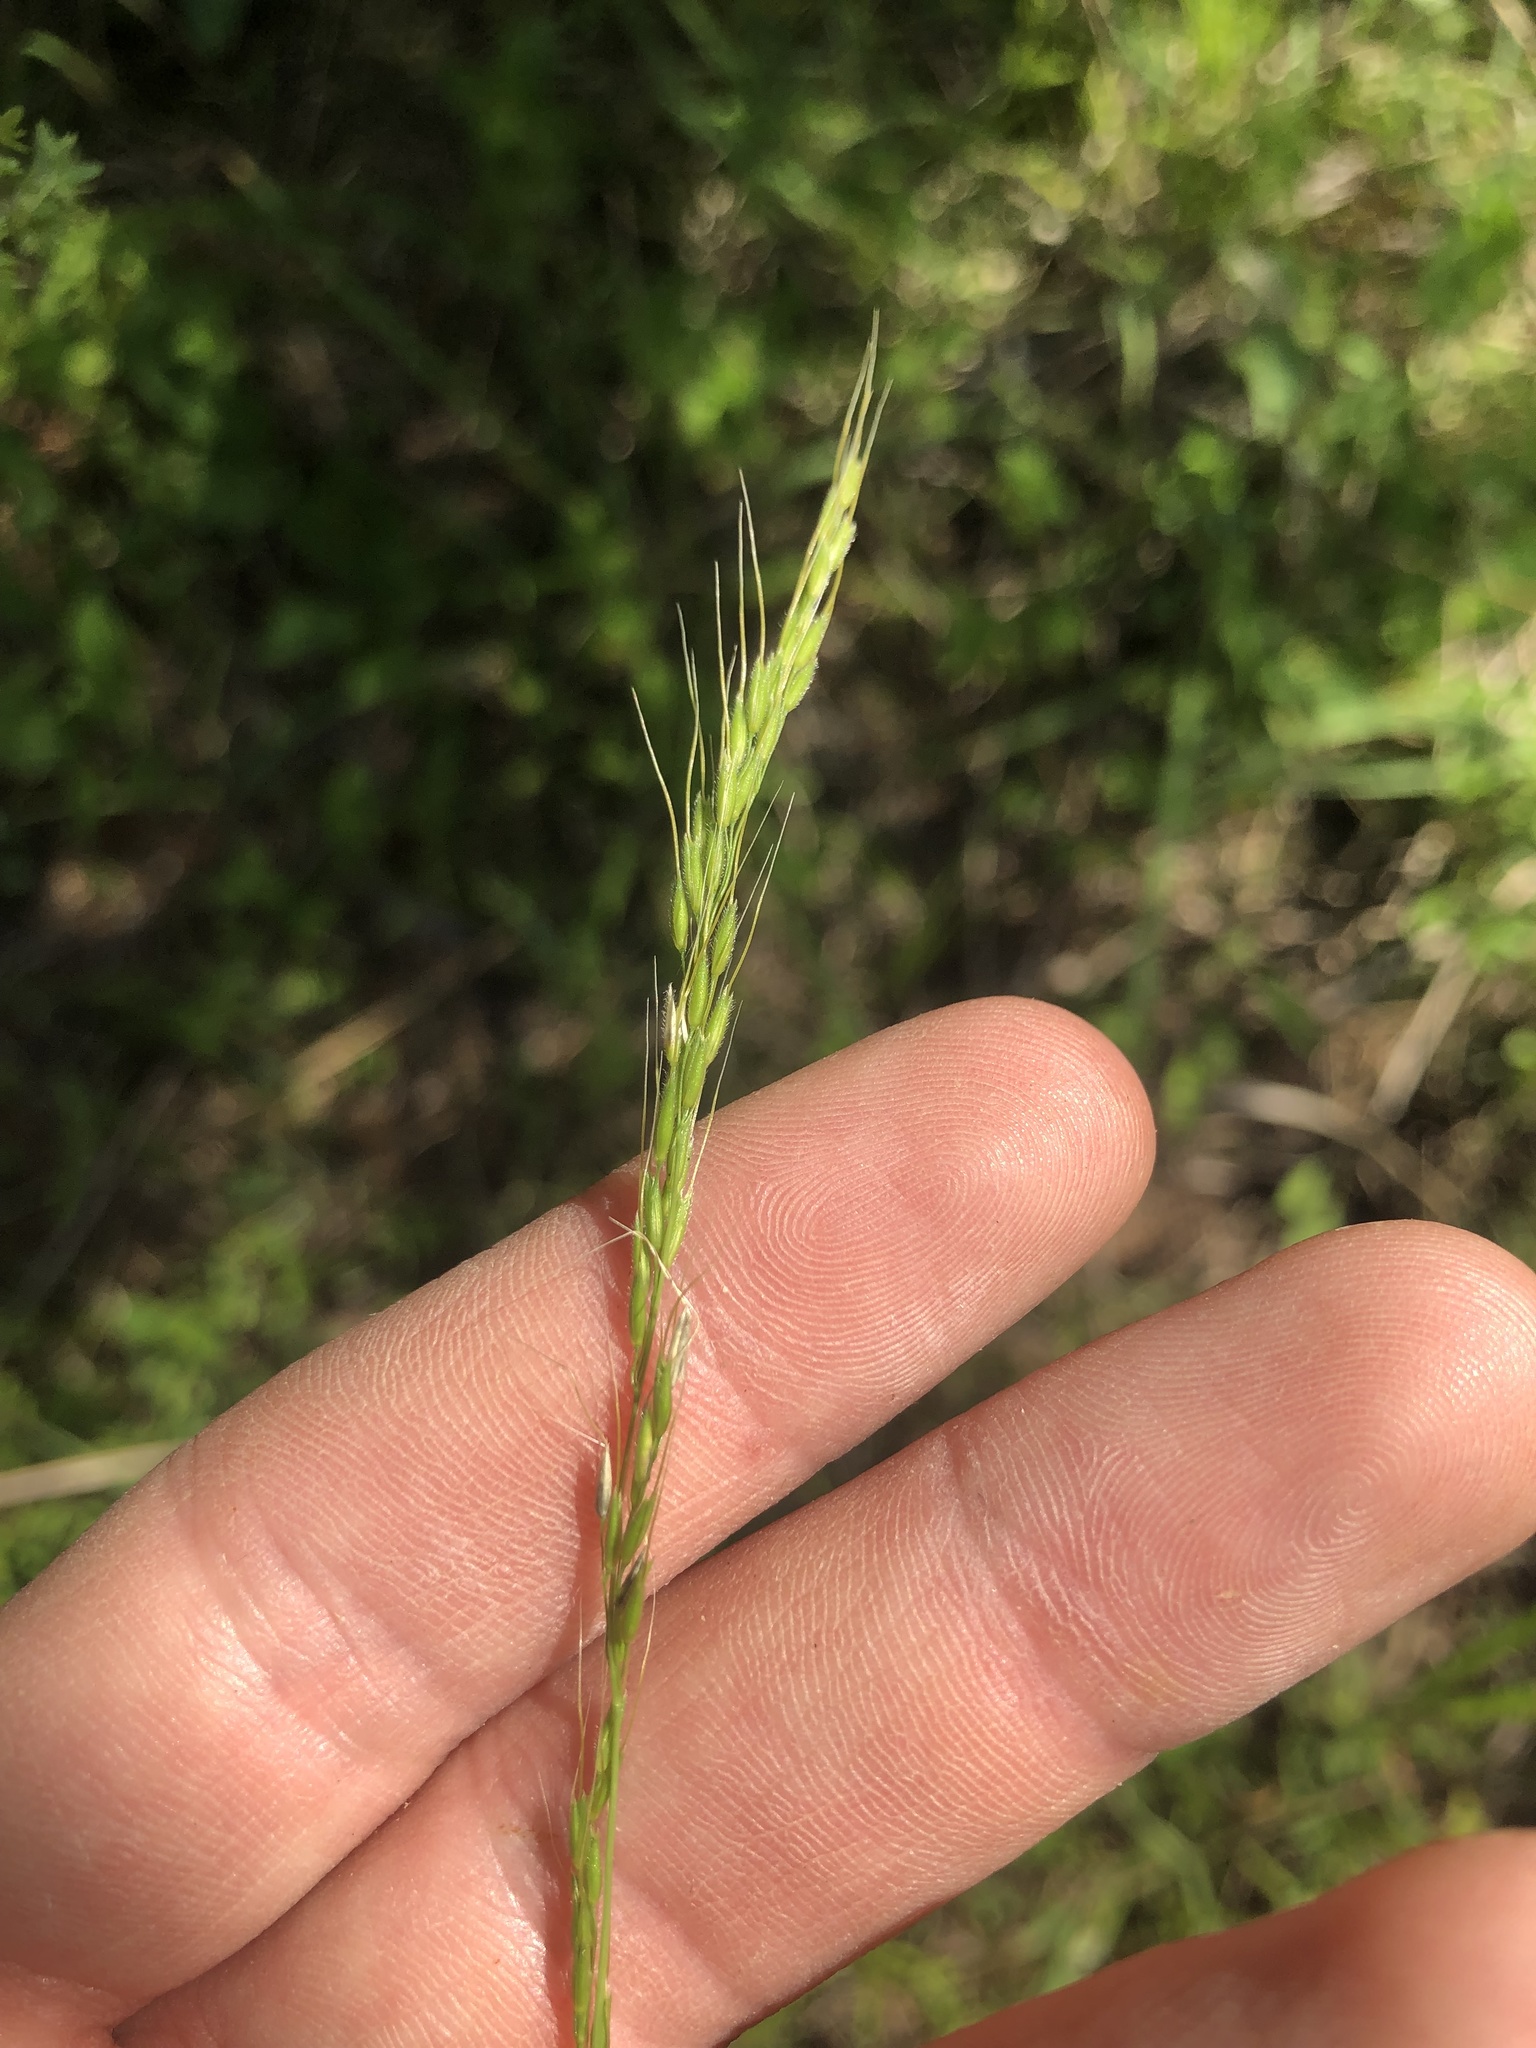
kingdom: Plantae
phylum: Tracheophyta
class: Liliopsida
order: Poales
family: Poaceae
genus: Limnodea
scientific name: Limnodea arkansana
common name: Ozark-grass
